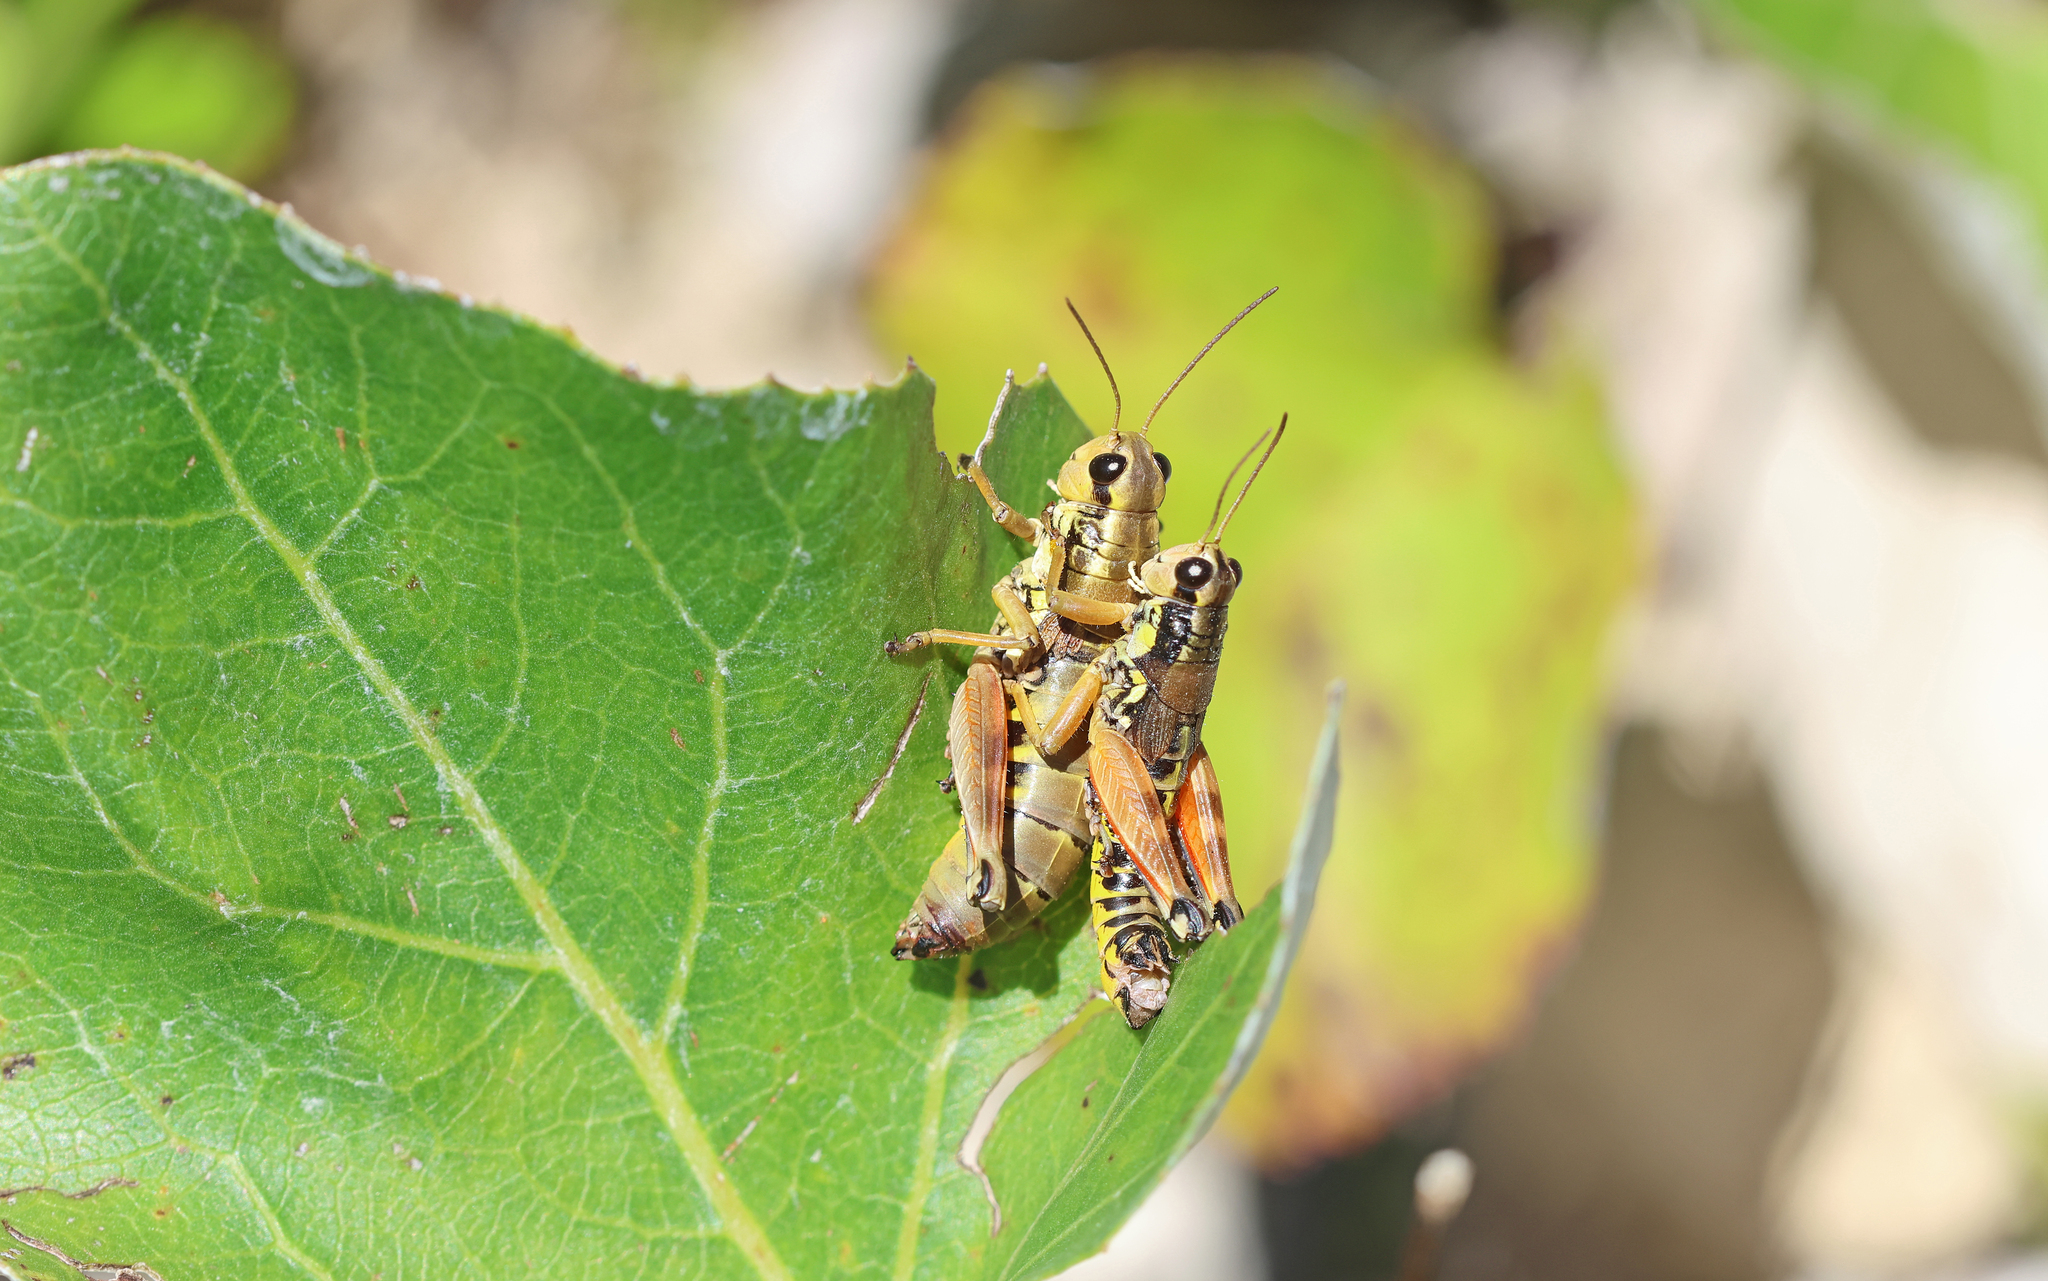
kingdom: Animalia
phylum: Arthropoda
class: Insecta
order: Orthoptera
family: Acrididae
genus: Podisma
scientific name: Podisma pedestris
